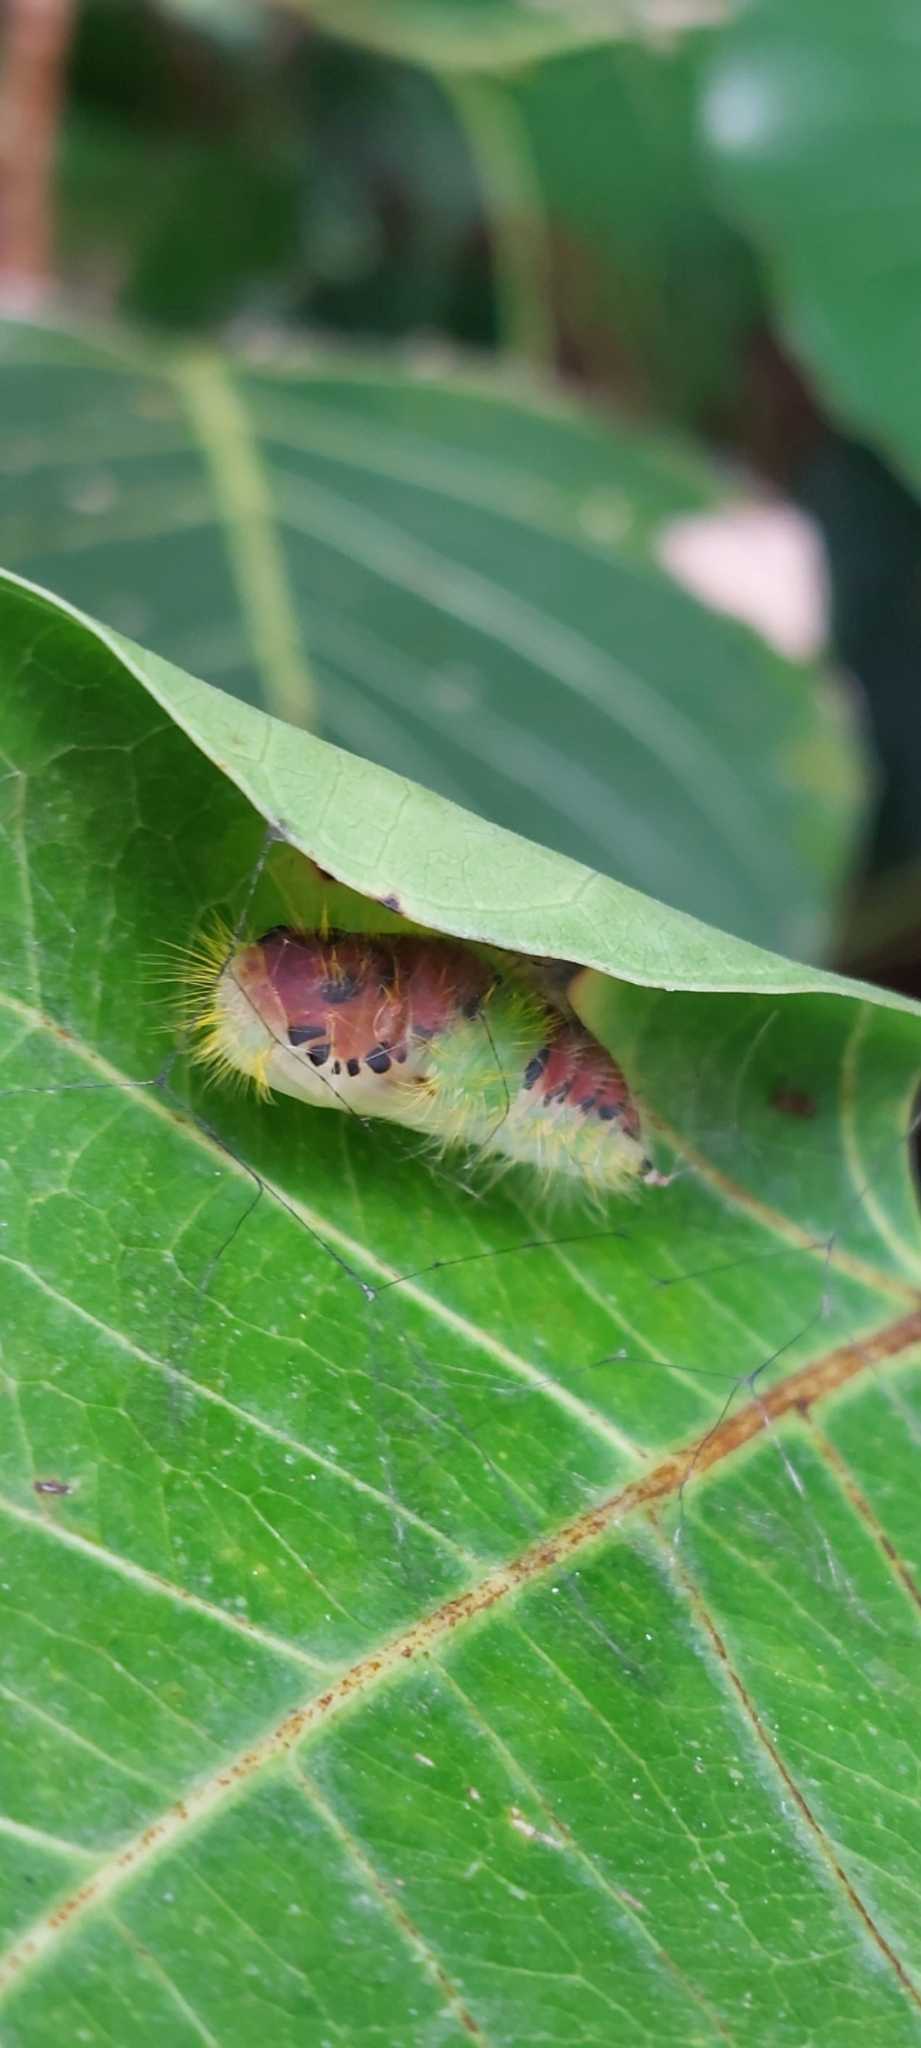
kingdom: Animalia
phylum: Arthropoda
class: Insecta
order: Lepidoptera
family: Erebidae
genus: Perina
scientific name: Perina nuda
